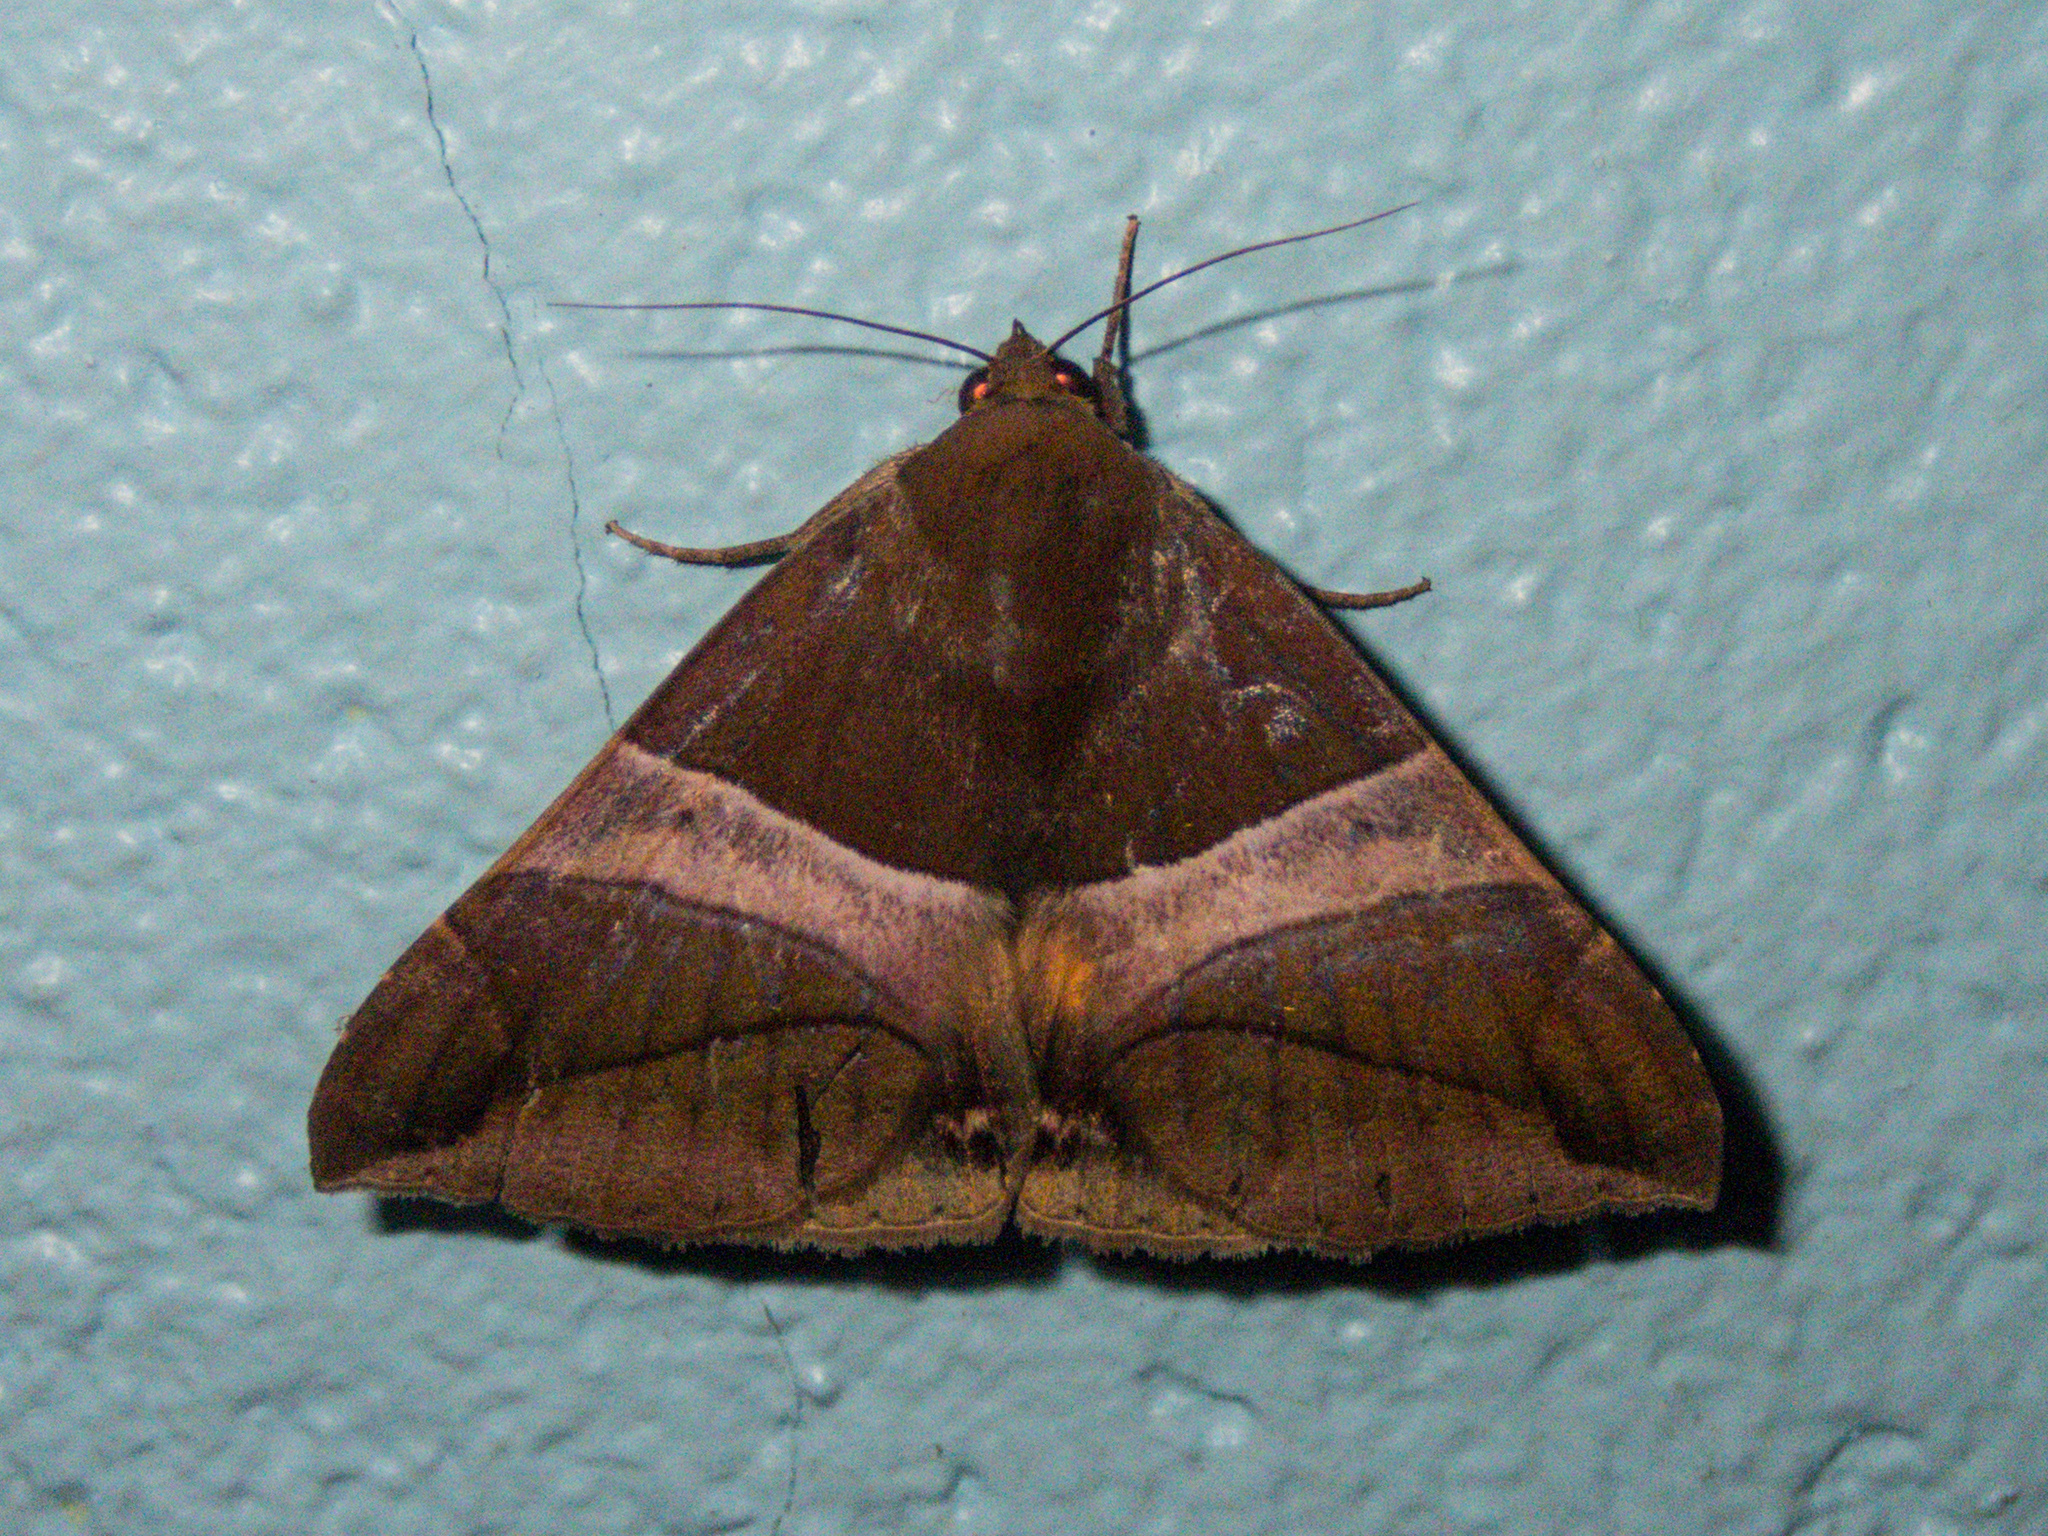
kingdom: Animalia
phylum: Arthropoda
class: Insecta
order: Lepidoptera
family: Erebidae
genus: Bastilla
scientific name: Bastilla fulvotaenia
